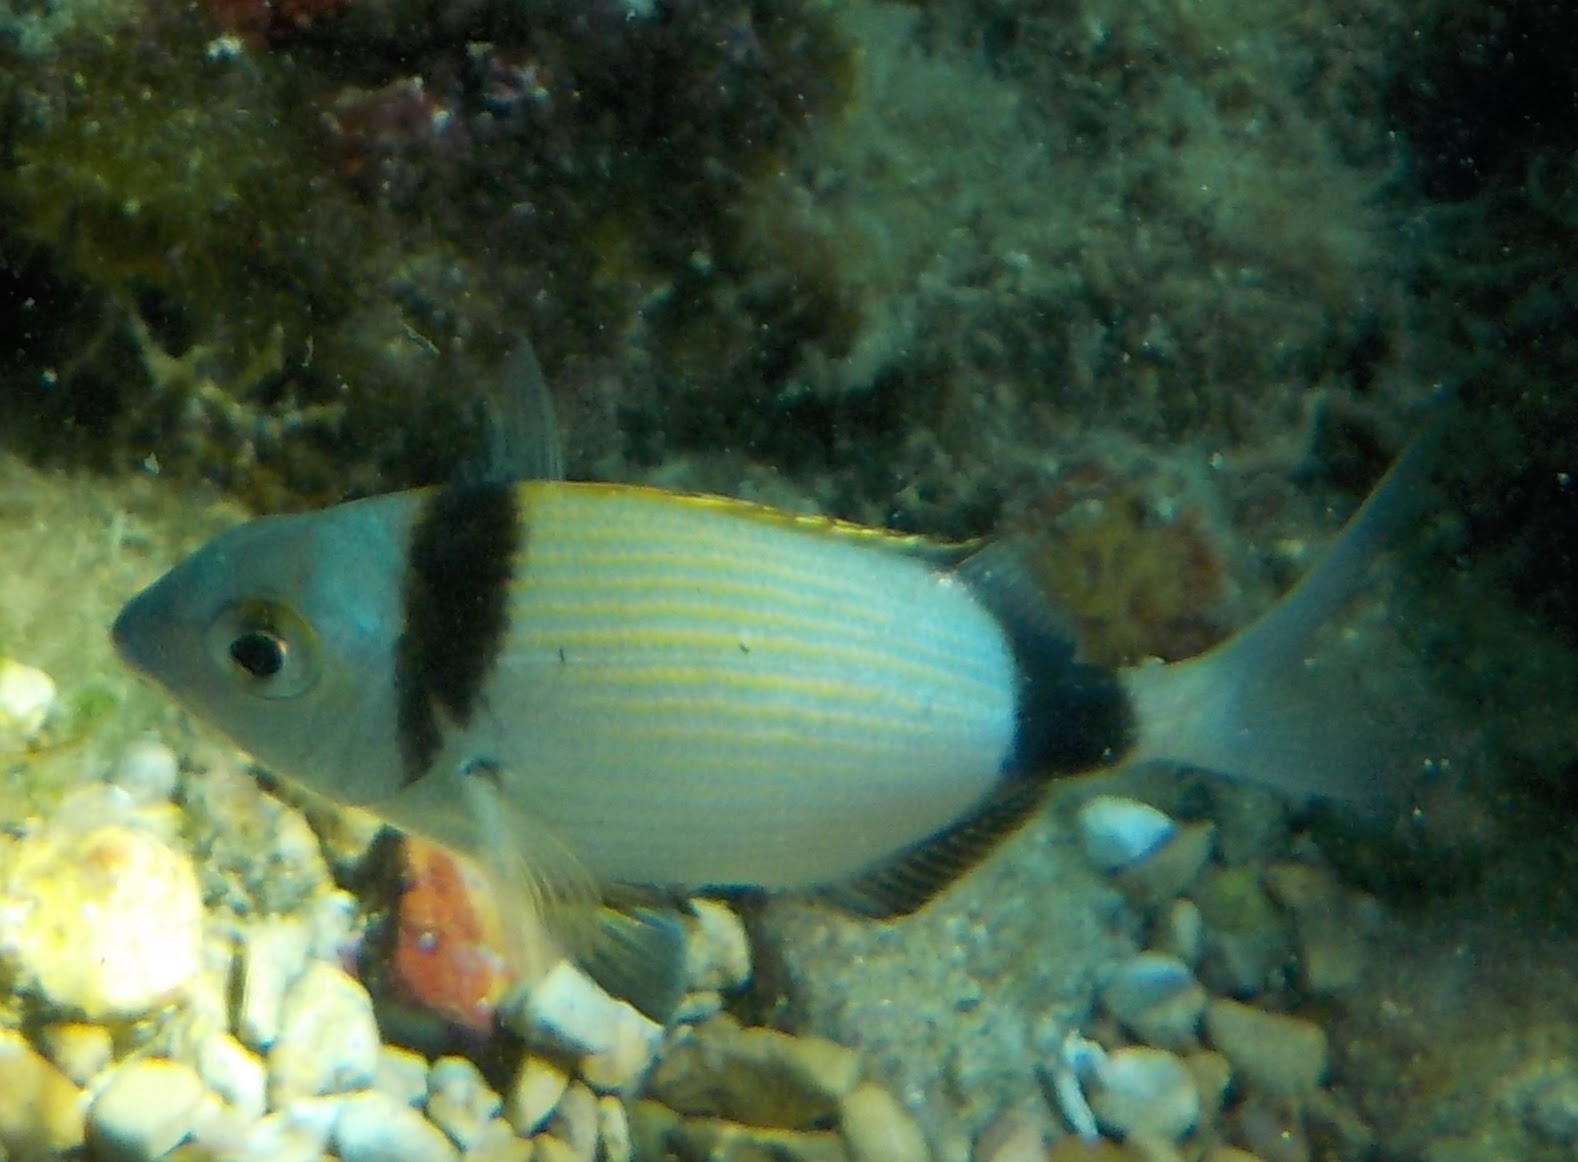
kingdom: Animalia
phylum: Chordata
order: Perciformes
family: Sparidae
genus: Diplodus
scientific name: Diplodus vulgaris
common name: Common two-banded seabream
